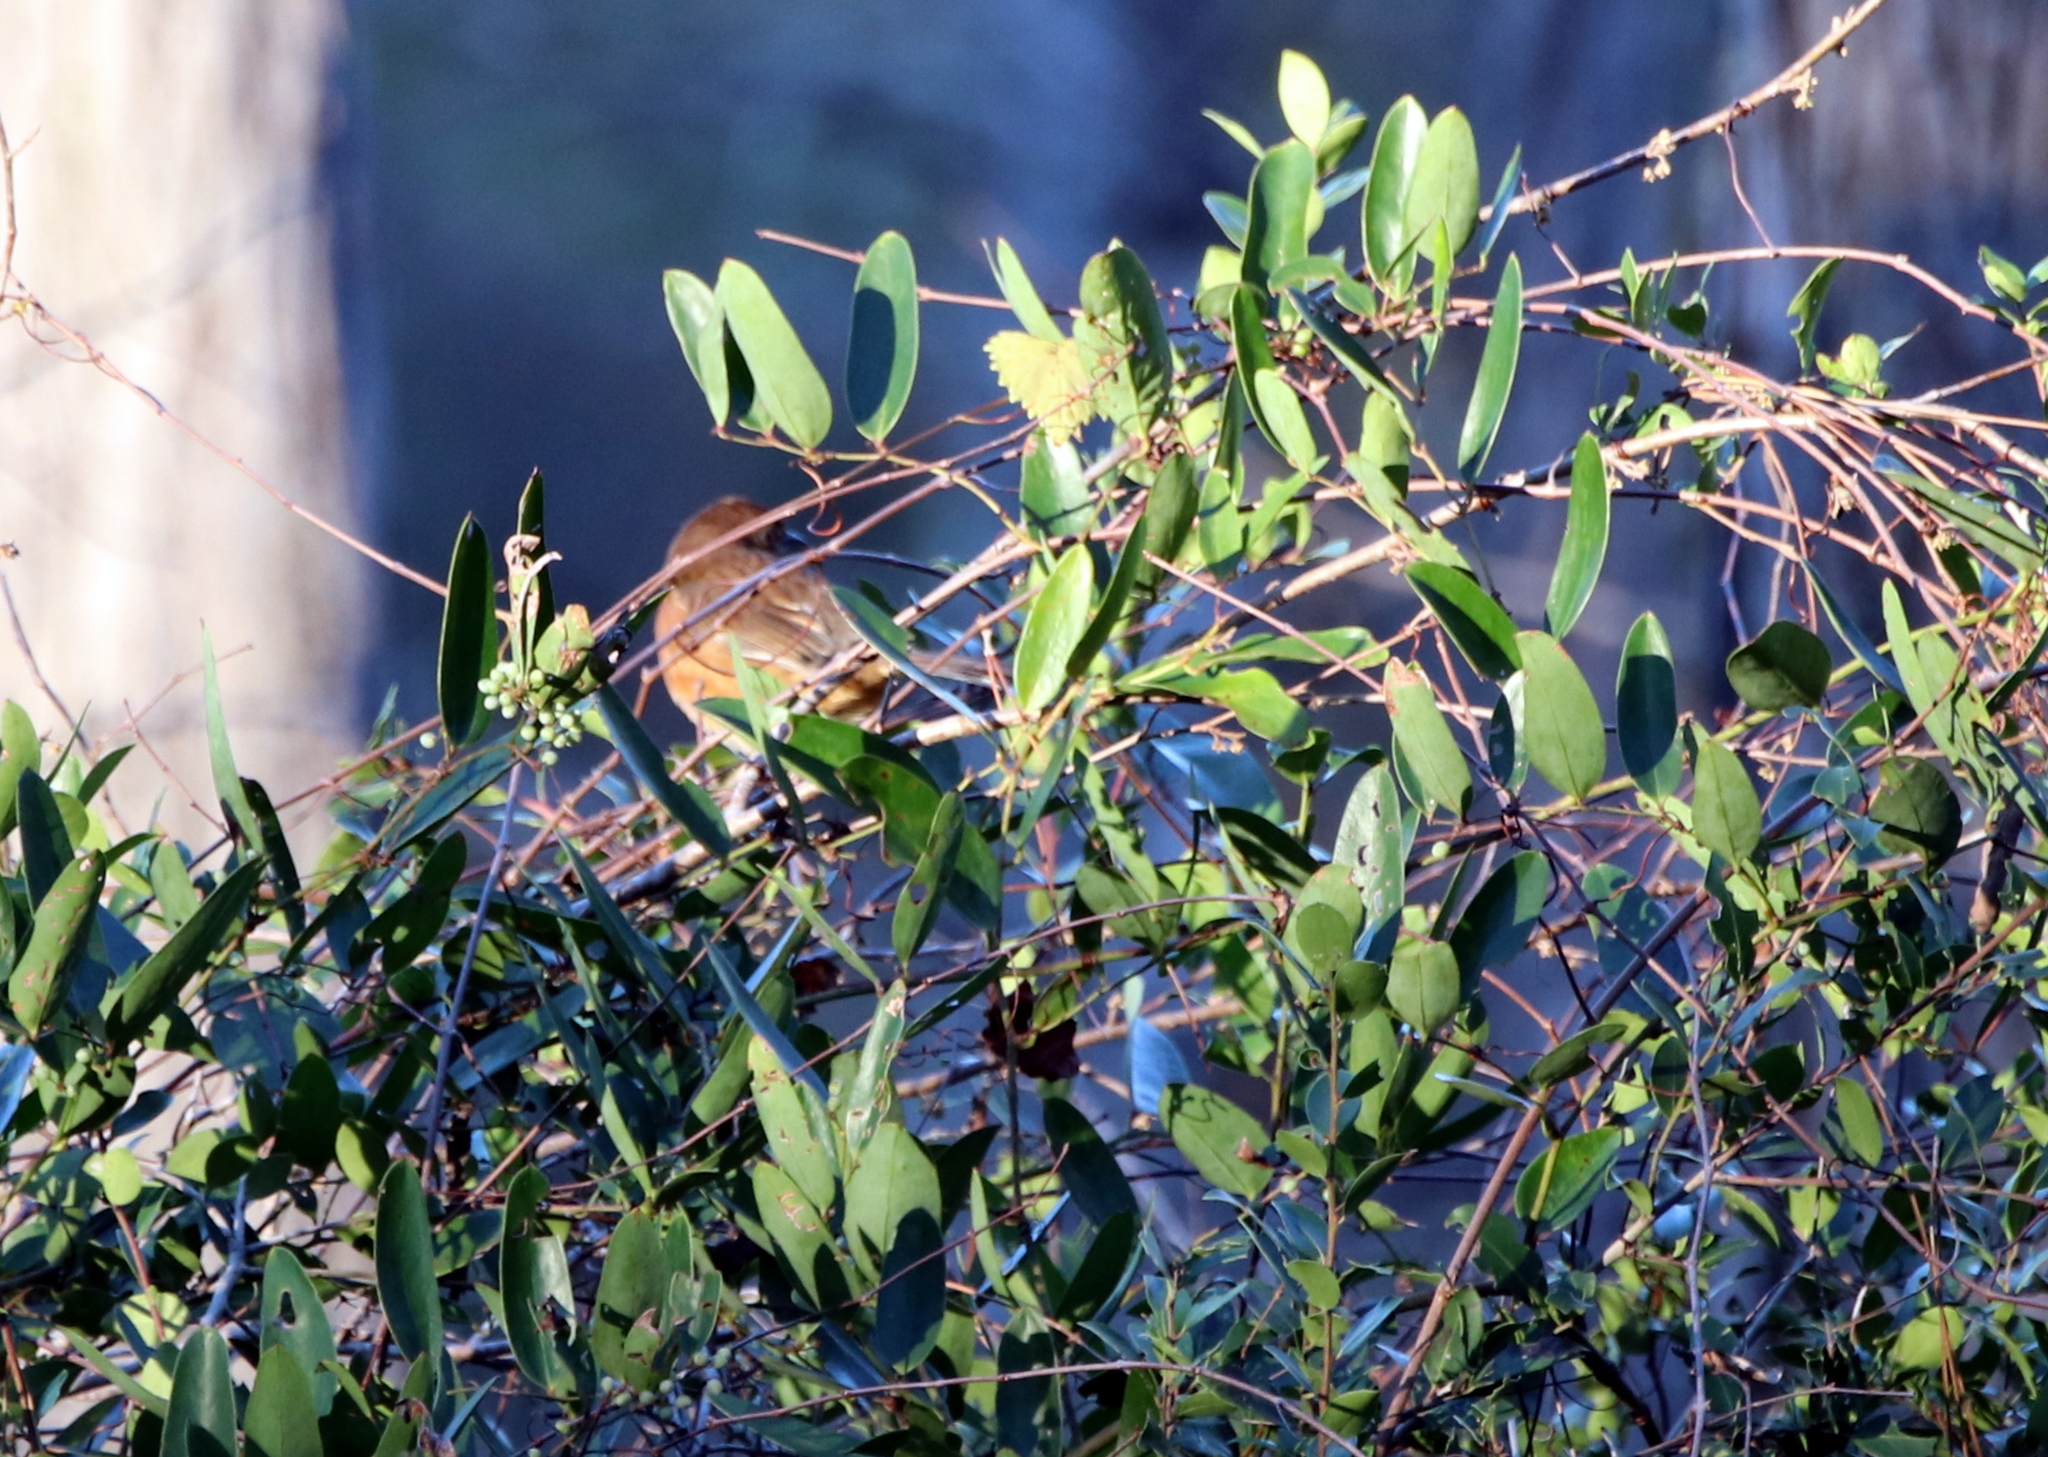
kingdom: Animalia
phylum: Chordata
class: Aves
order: Passeriformes
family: Passerellidae
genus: Pipilo
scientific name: Pipilo erythrophthalmus
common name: Eastern towhee
